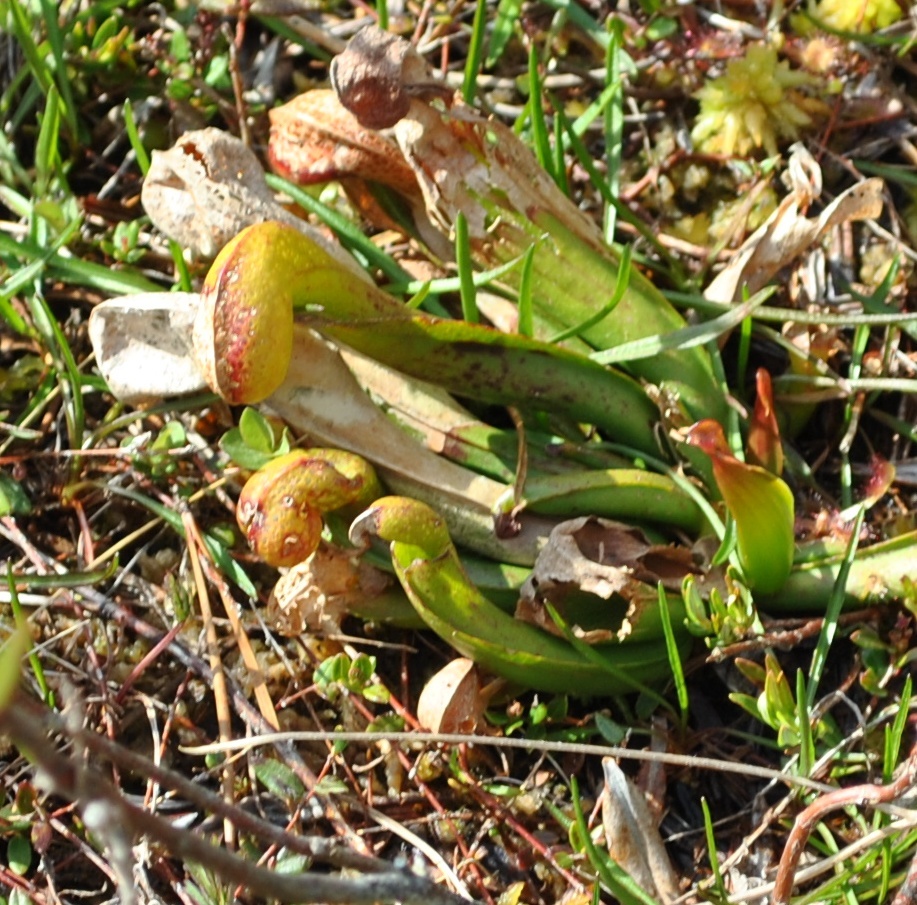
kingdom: Plantae
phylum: Tracheophyta
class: Magnoliopsida
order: Ericales
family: Sarraceniaceae
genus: Darlingtonia
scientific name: Darlingtonia californica
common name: California pitcher plant
